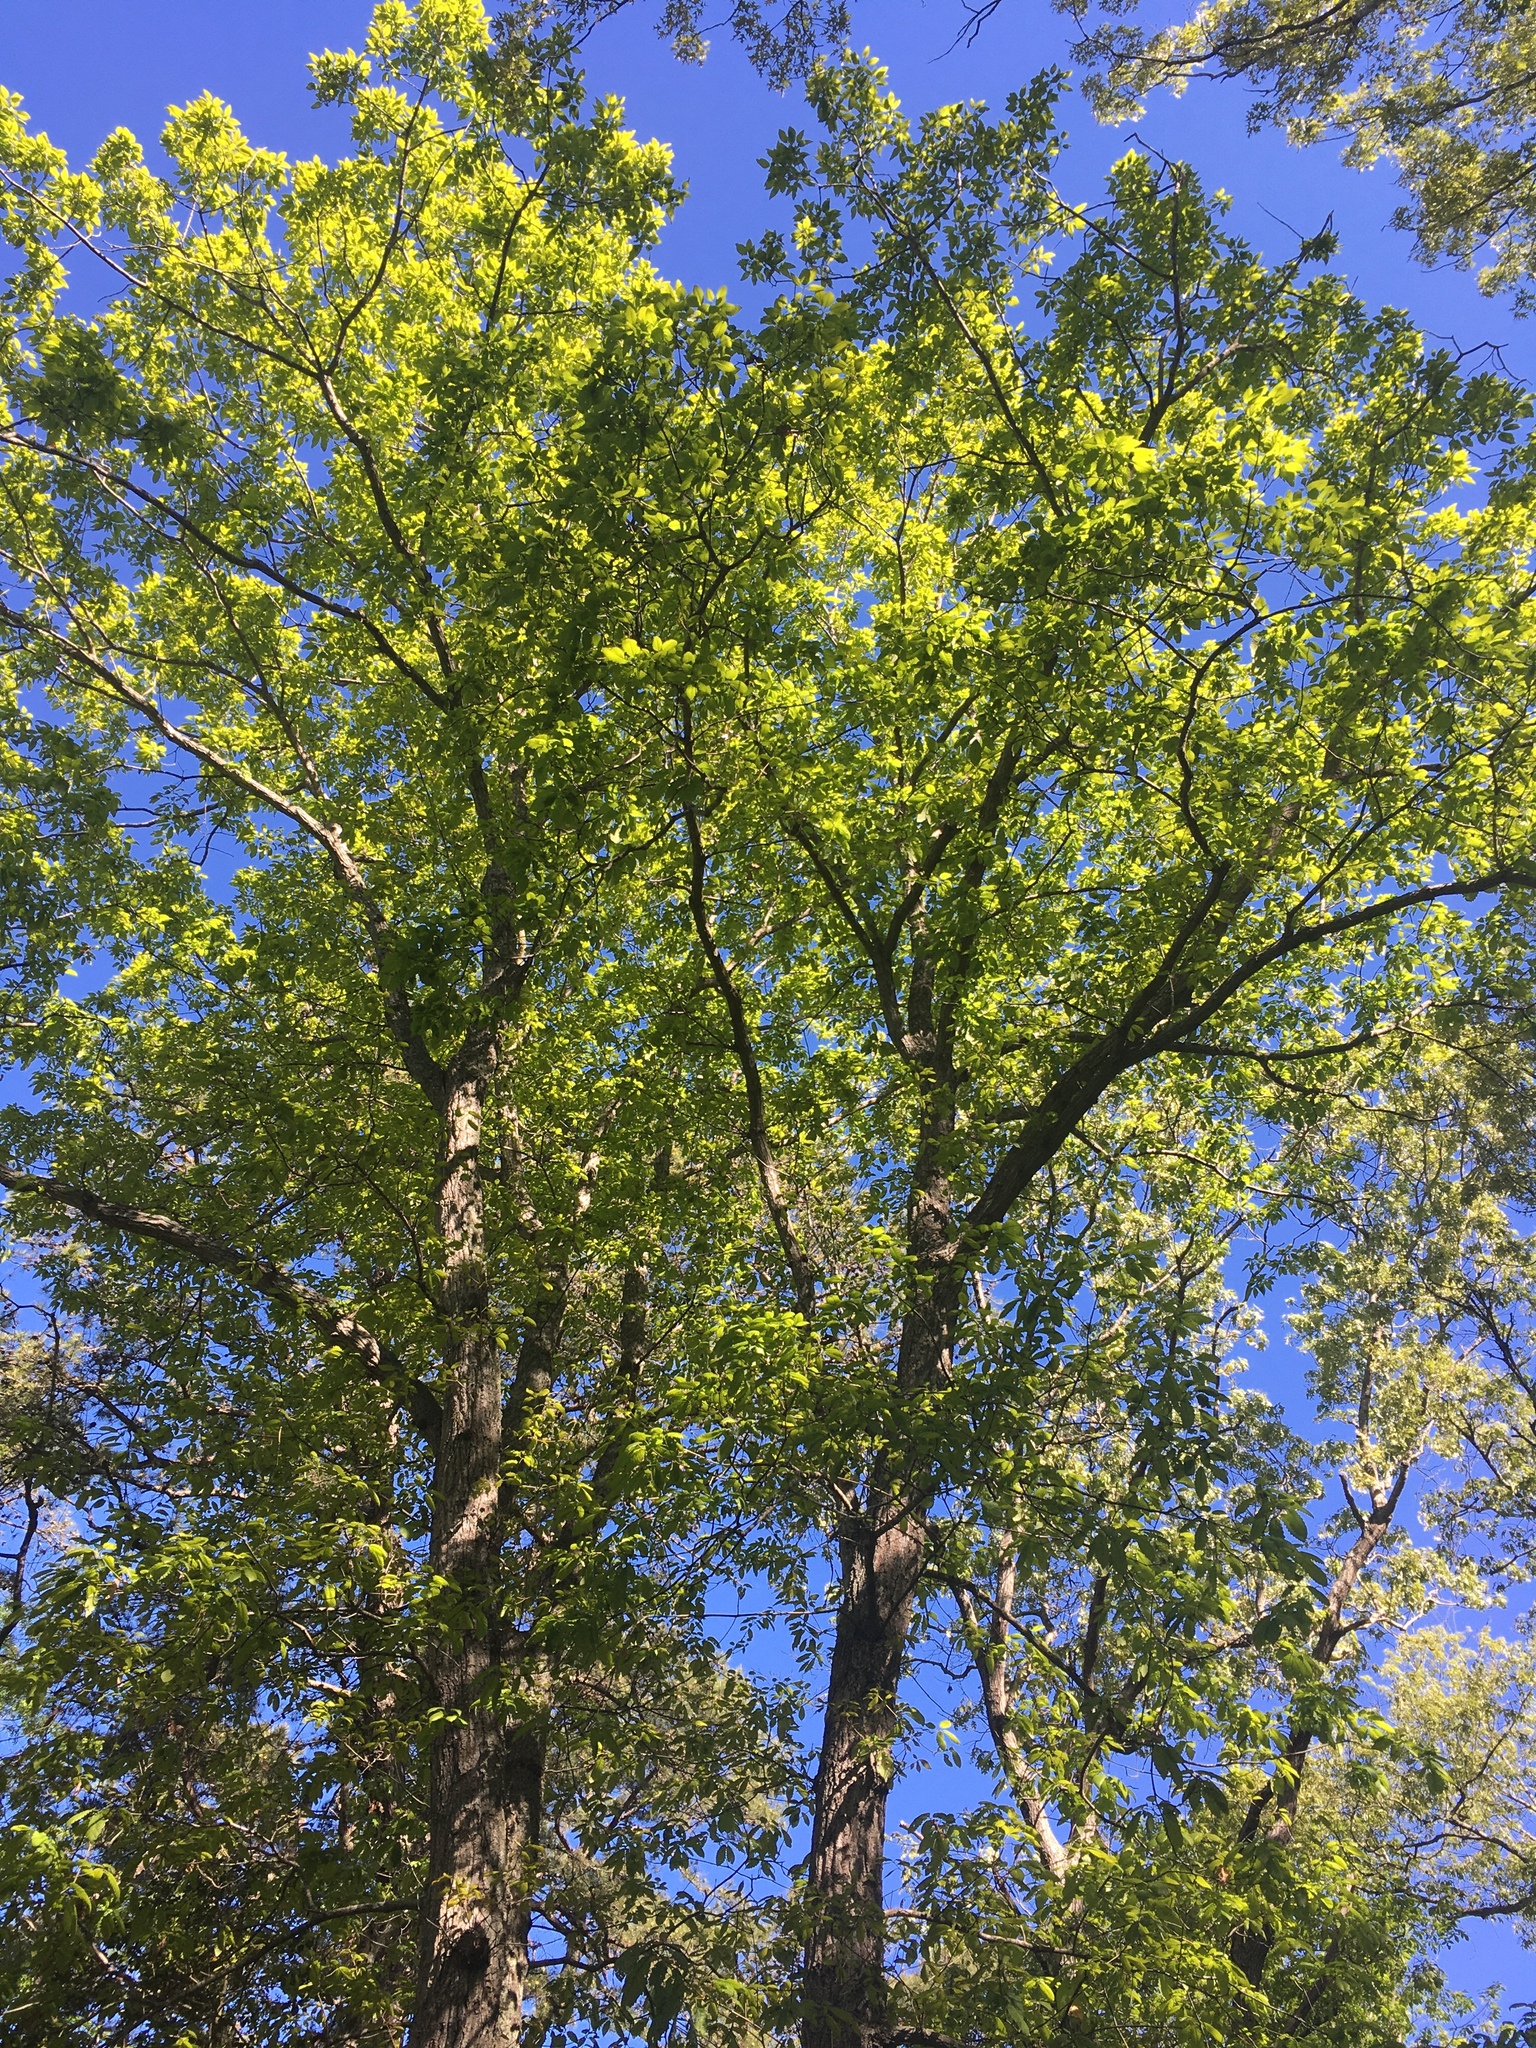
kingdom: Plantae
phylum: Tracheophyta
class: Magnoliopsida
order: Fagales
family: Fagaceae
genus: Quercus
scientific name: Quercus montana
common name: Chestnut oak
